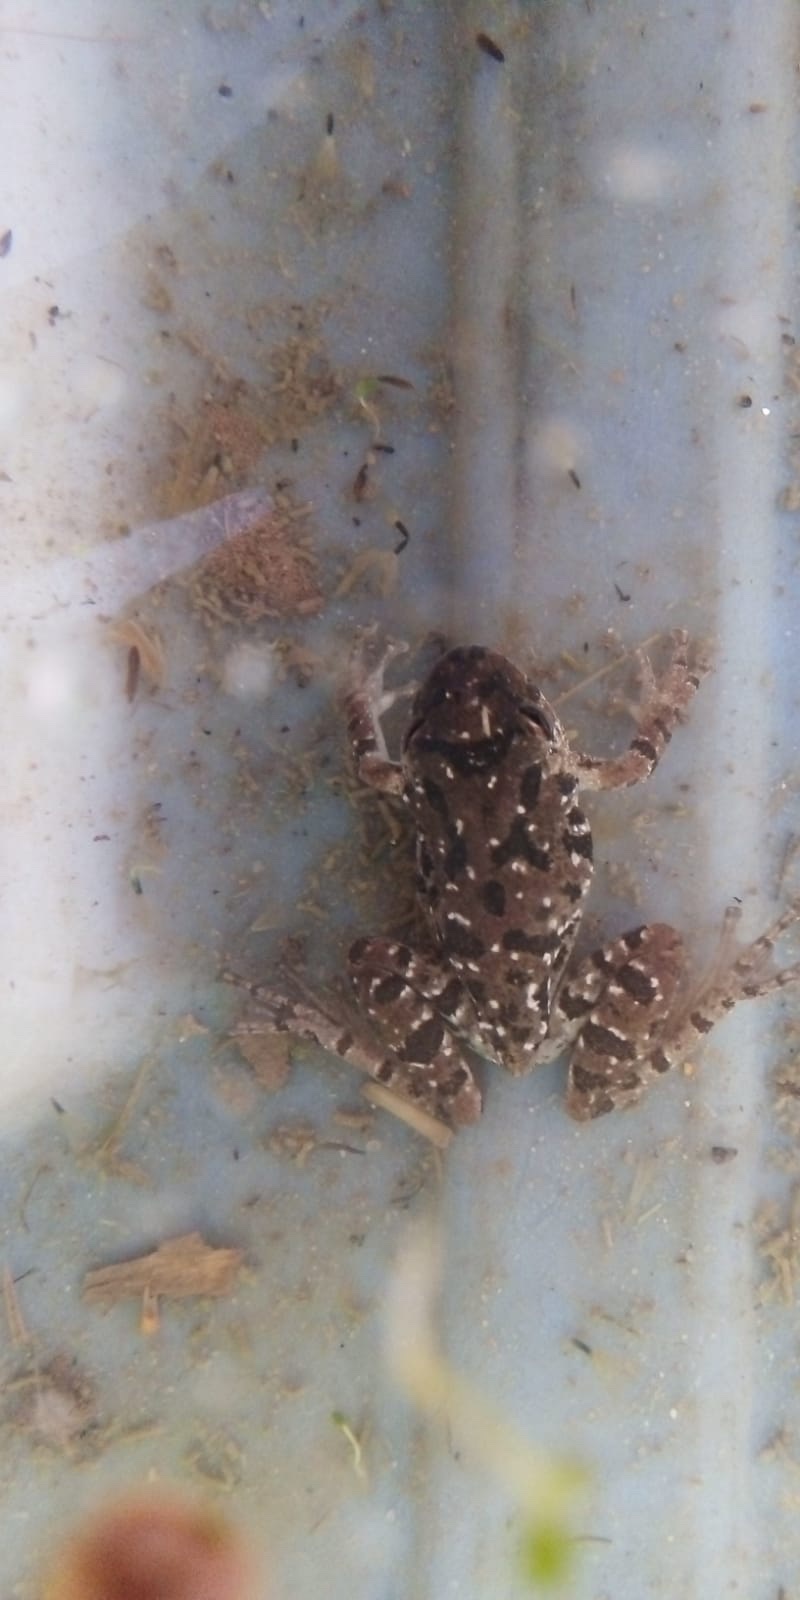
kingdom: Animalia
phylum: Chordata
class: Amphibia
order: Anura
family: Hylidae
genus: Scinax
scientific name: Scinax granulatus
